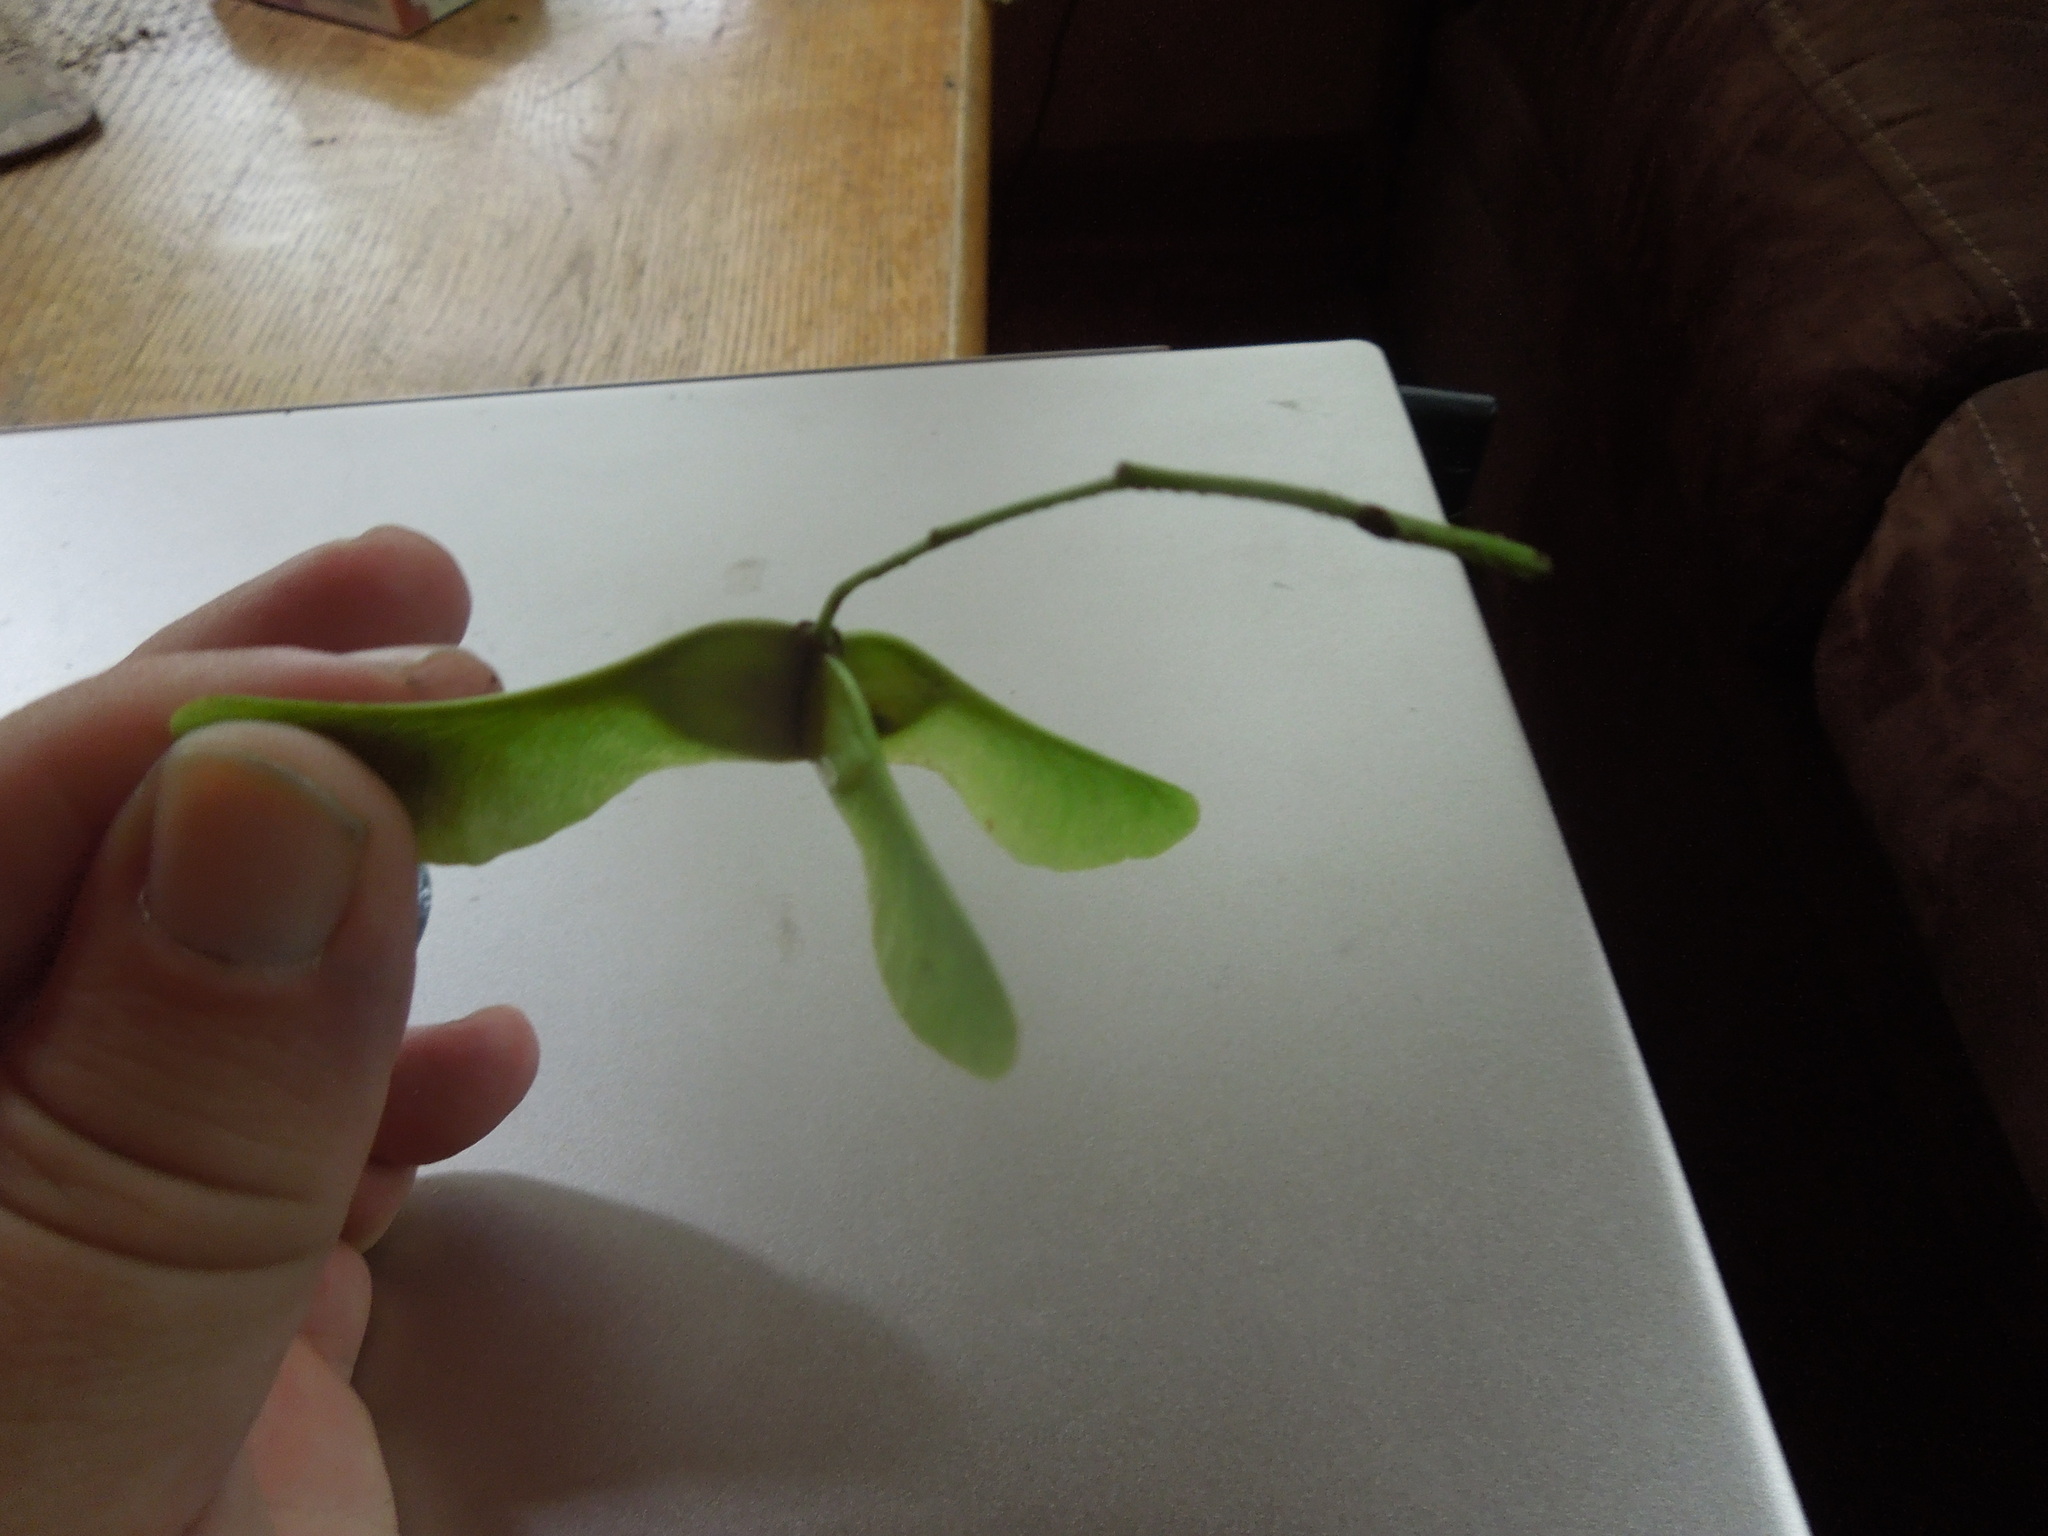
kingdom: Plantae
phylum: Tracheophyta
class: Magnoliopsida
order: Sapindales
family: Sapindaceae
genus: Acer
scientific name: Acer platanoides
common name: Norway maple
